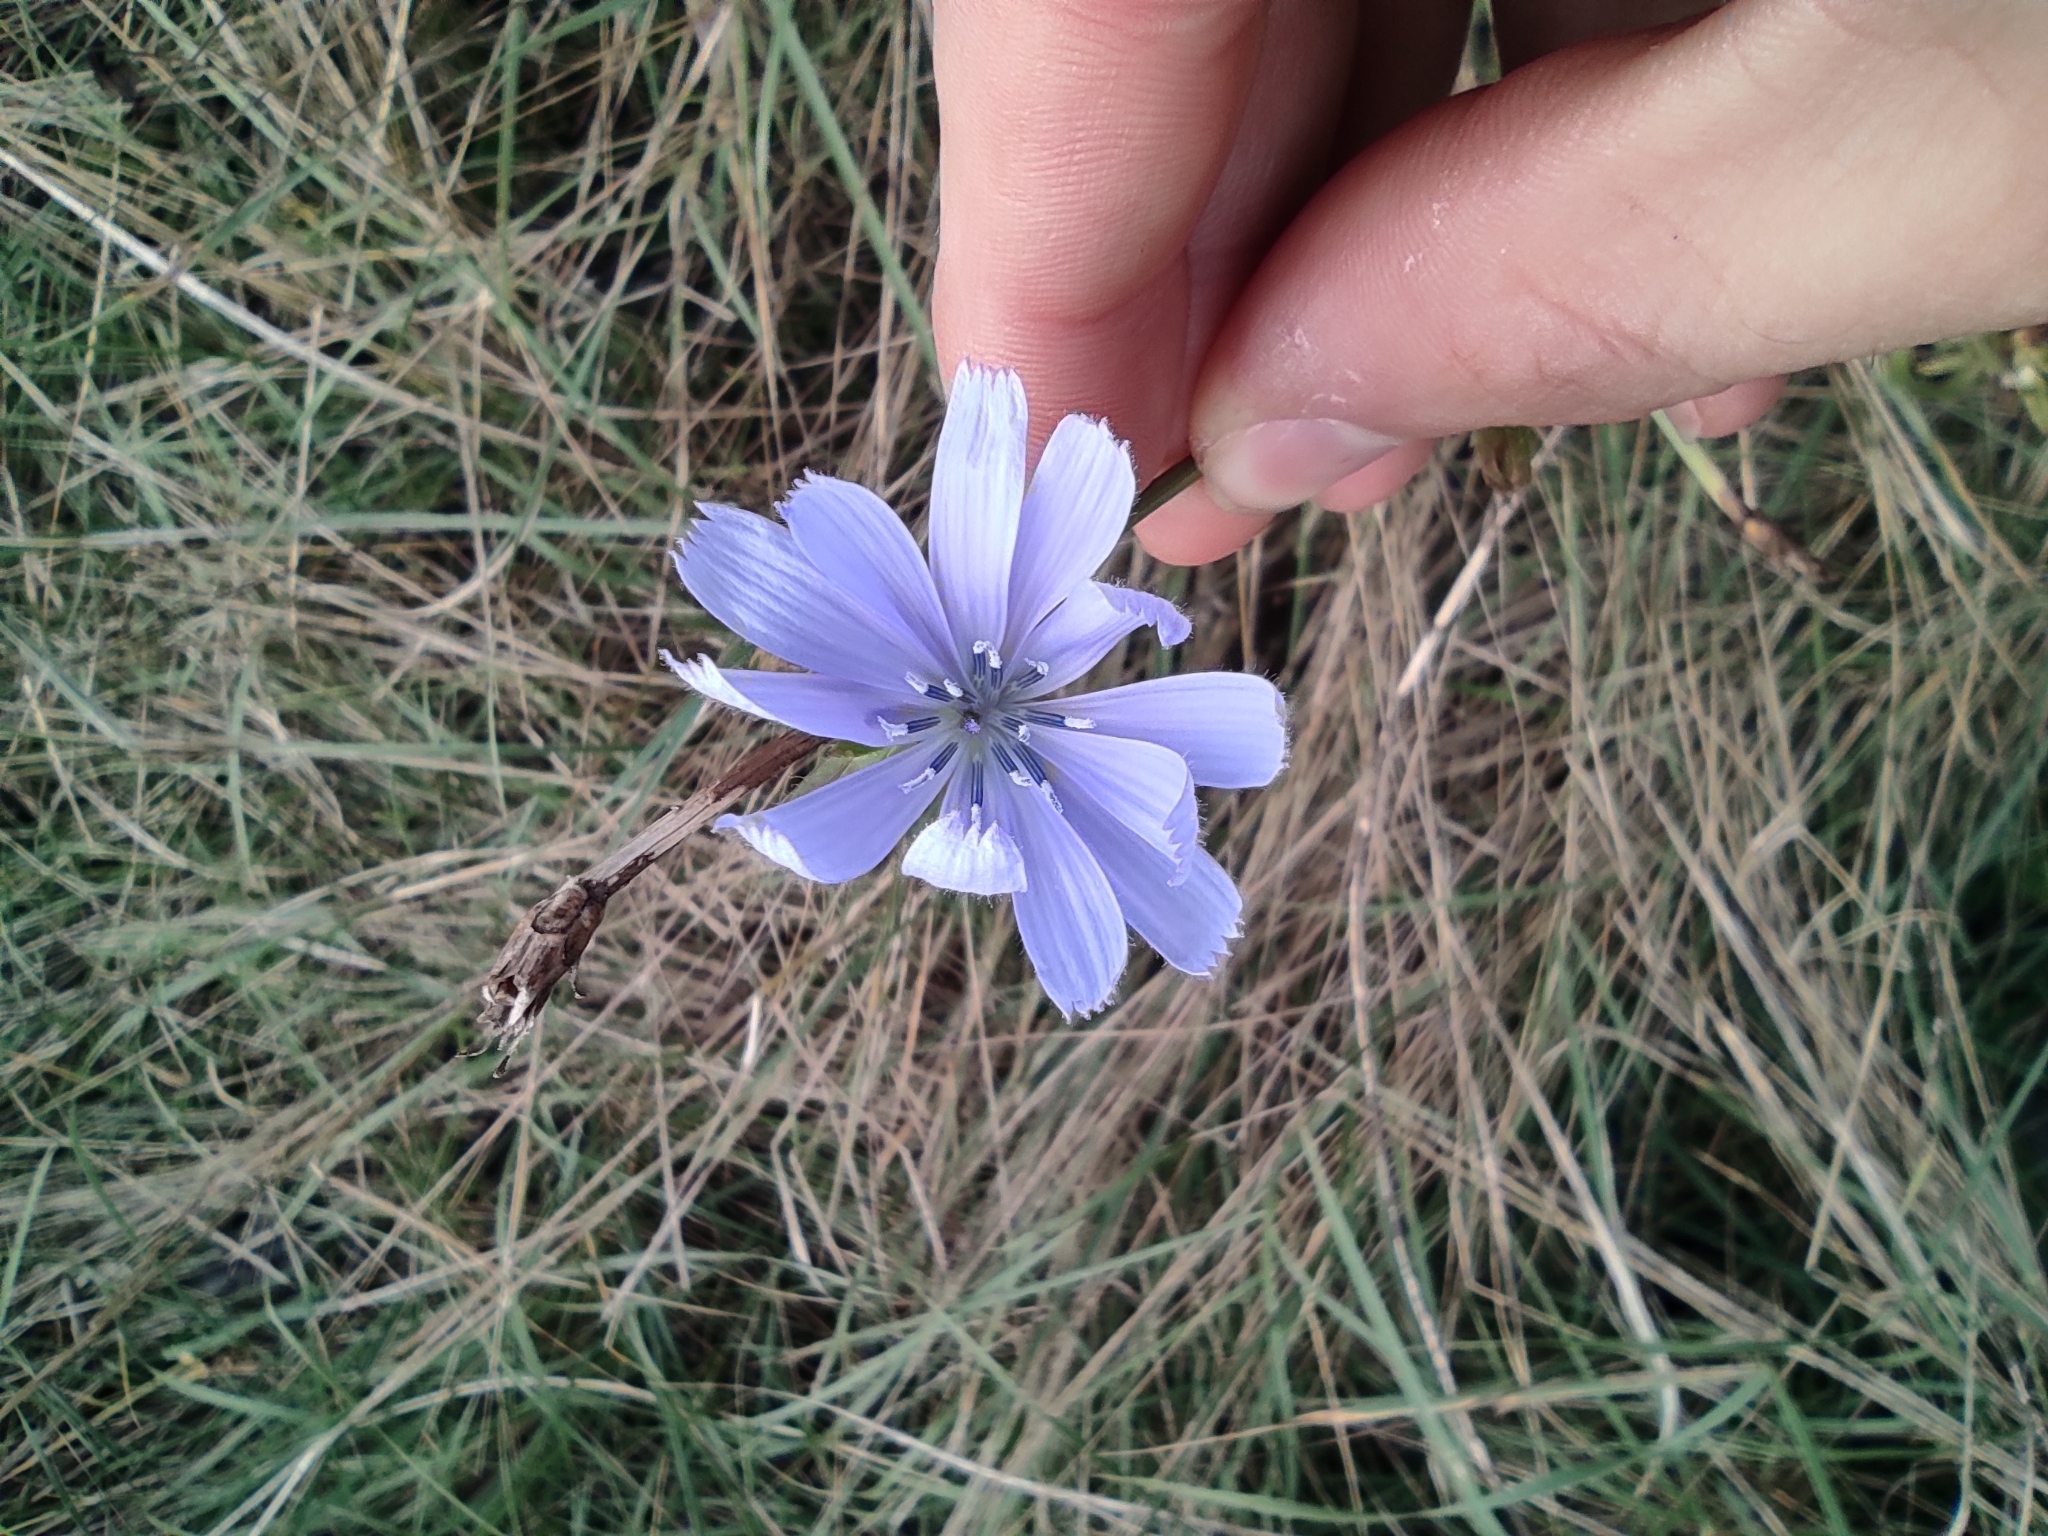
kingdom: Plantae
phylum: Tracheophyta
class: Magnoliopsida
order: Asterales
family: Asteraceae
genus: Cichorium
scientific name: Cichorium intybus
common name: Chicory
